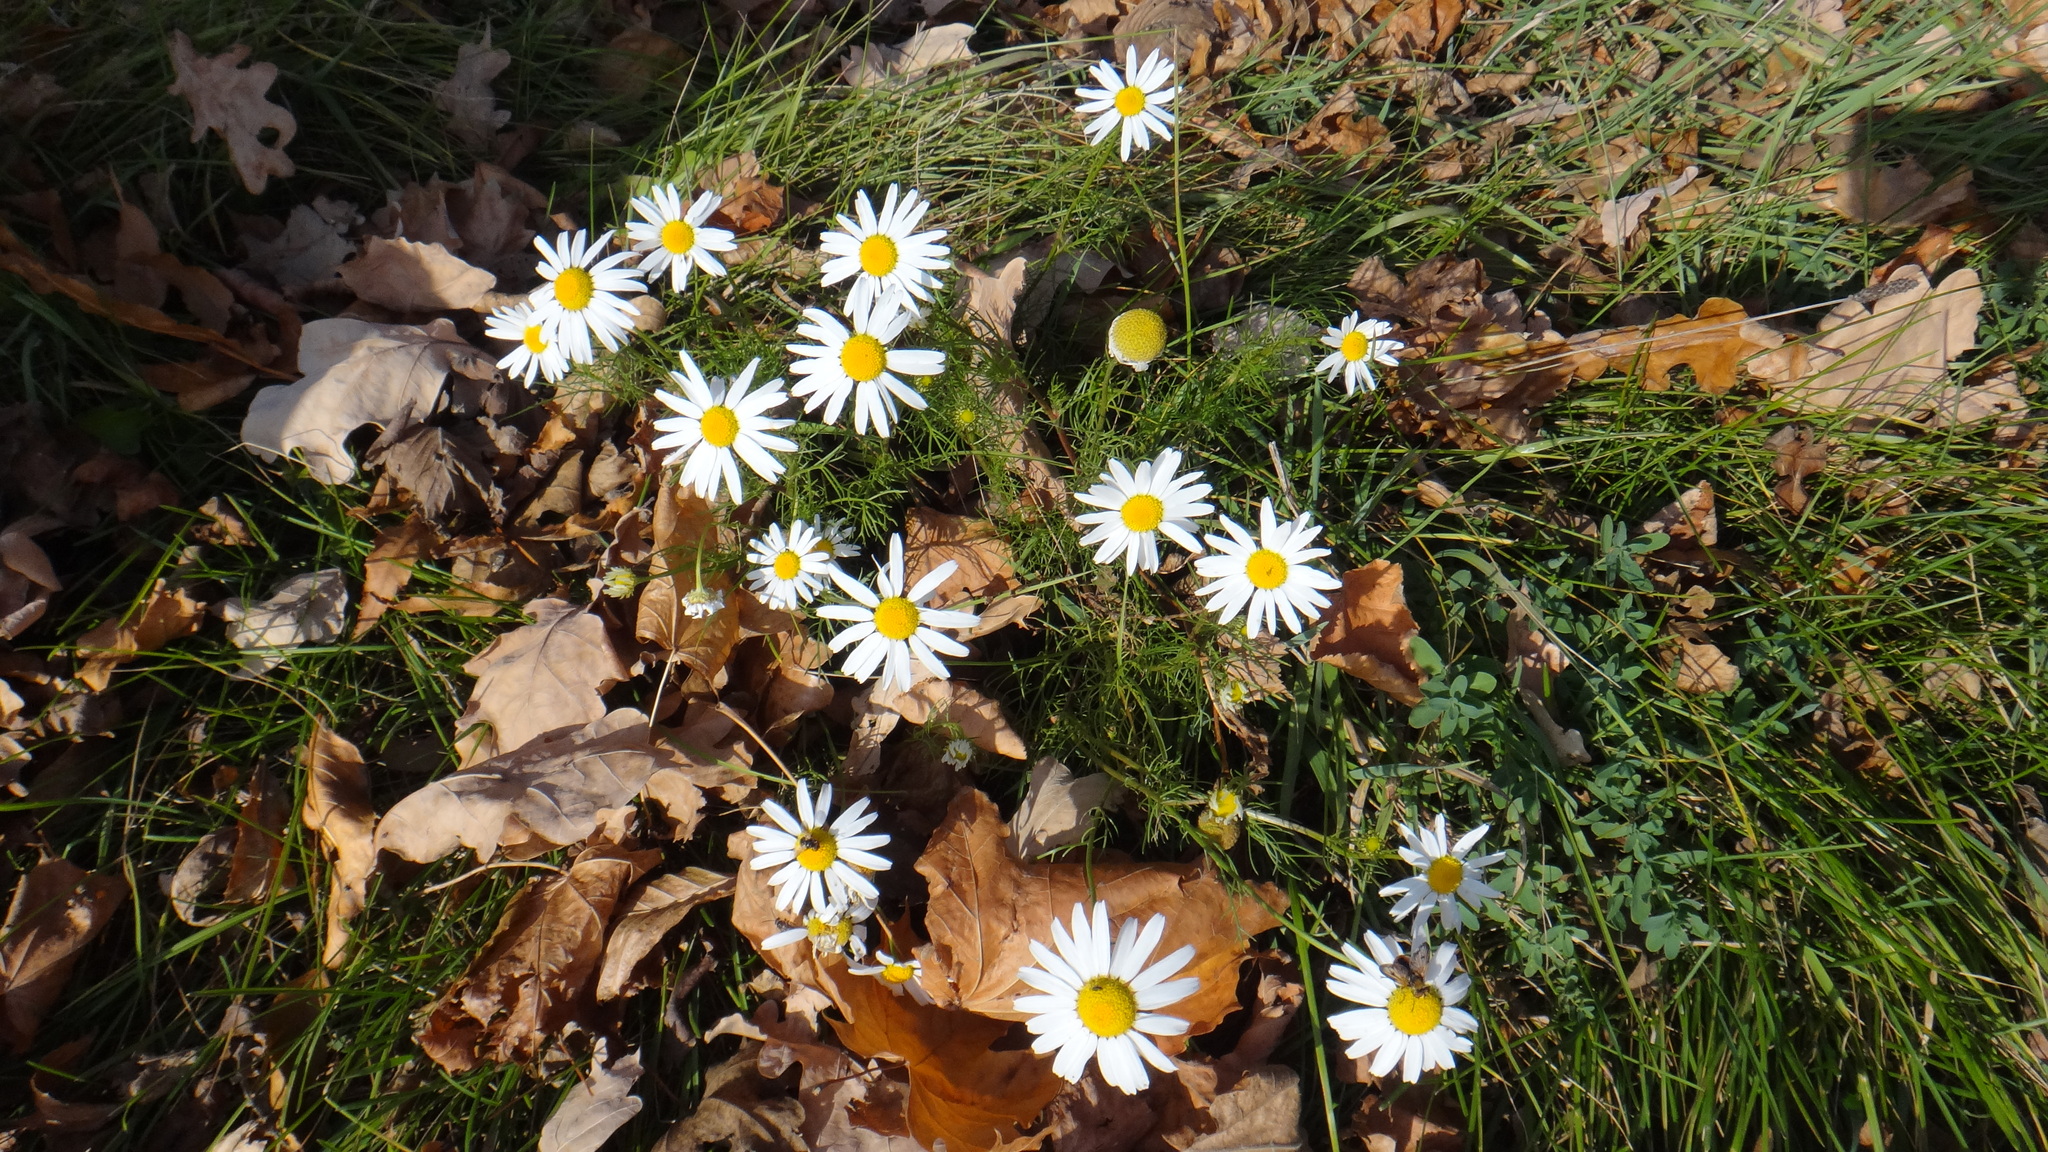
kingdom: Plantae
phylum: Tracheophyta
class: Magnoliopsida
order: Asterales
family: Asteraceae
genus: Tripleurospermum
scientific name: Tripleurospermum inodorum
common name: Scentless mayweed
